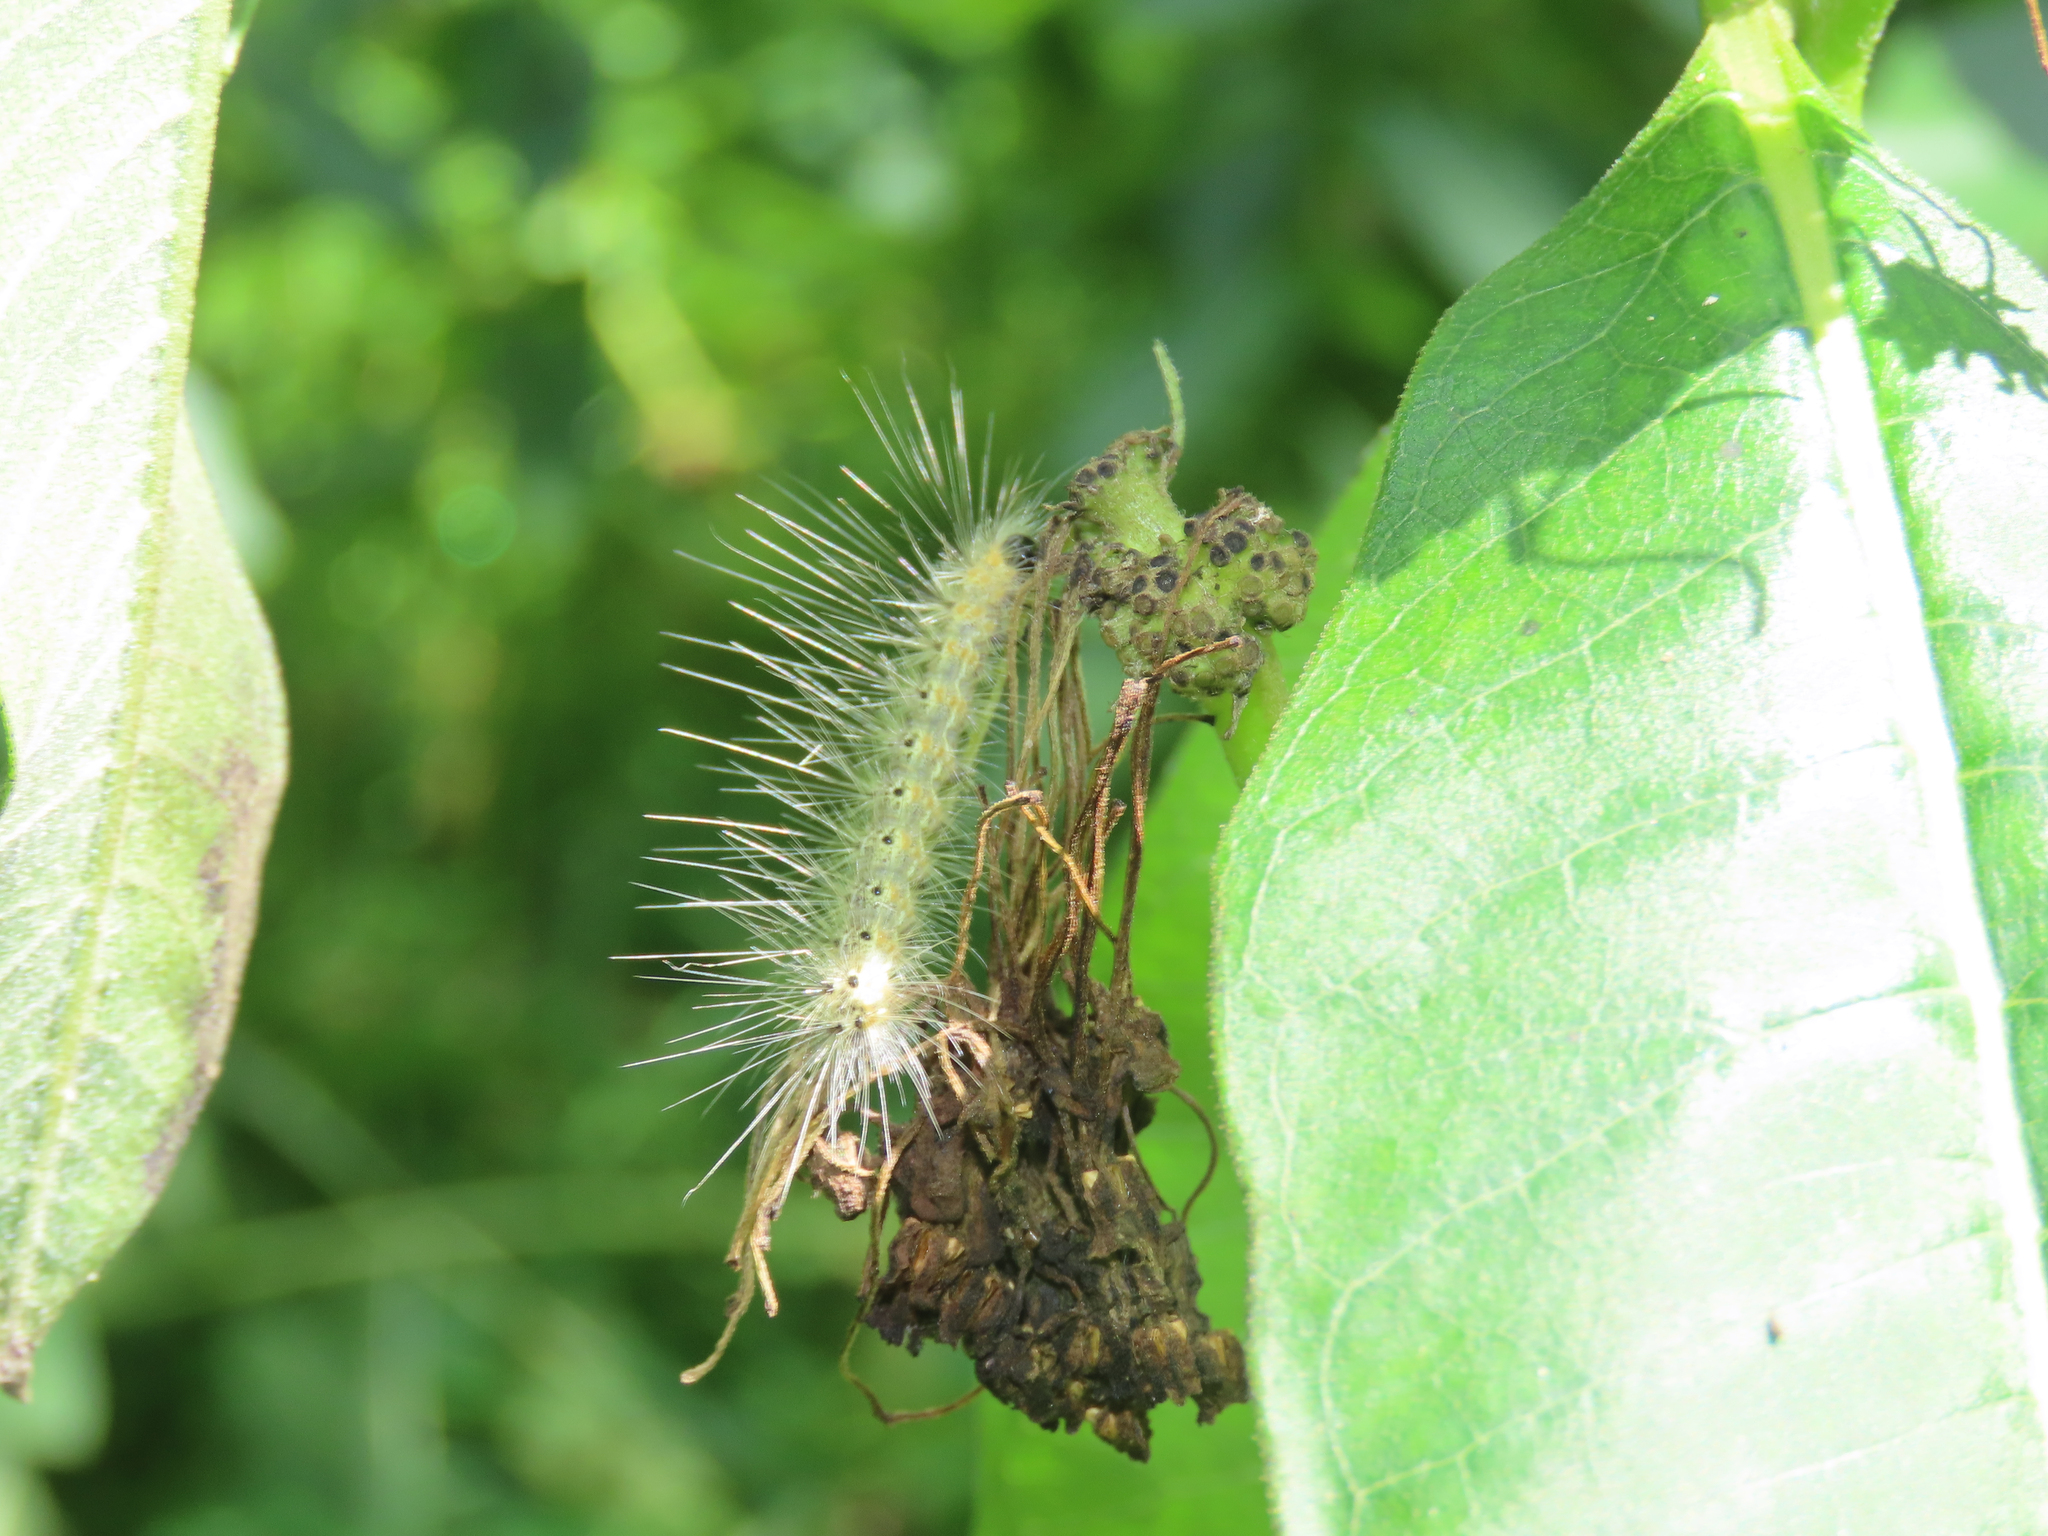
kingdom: Animalia
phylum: Arthropoda
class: Insecta
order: Lepidoptera
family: Erebidae
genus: Hyphantria
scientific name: Hyphantria cunea
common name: American white moth
